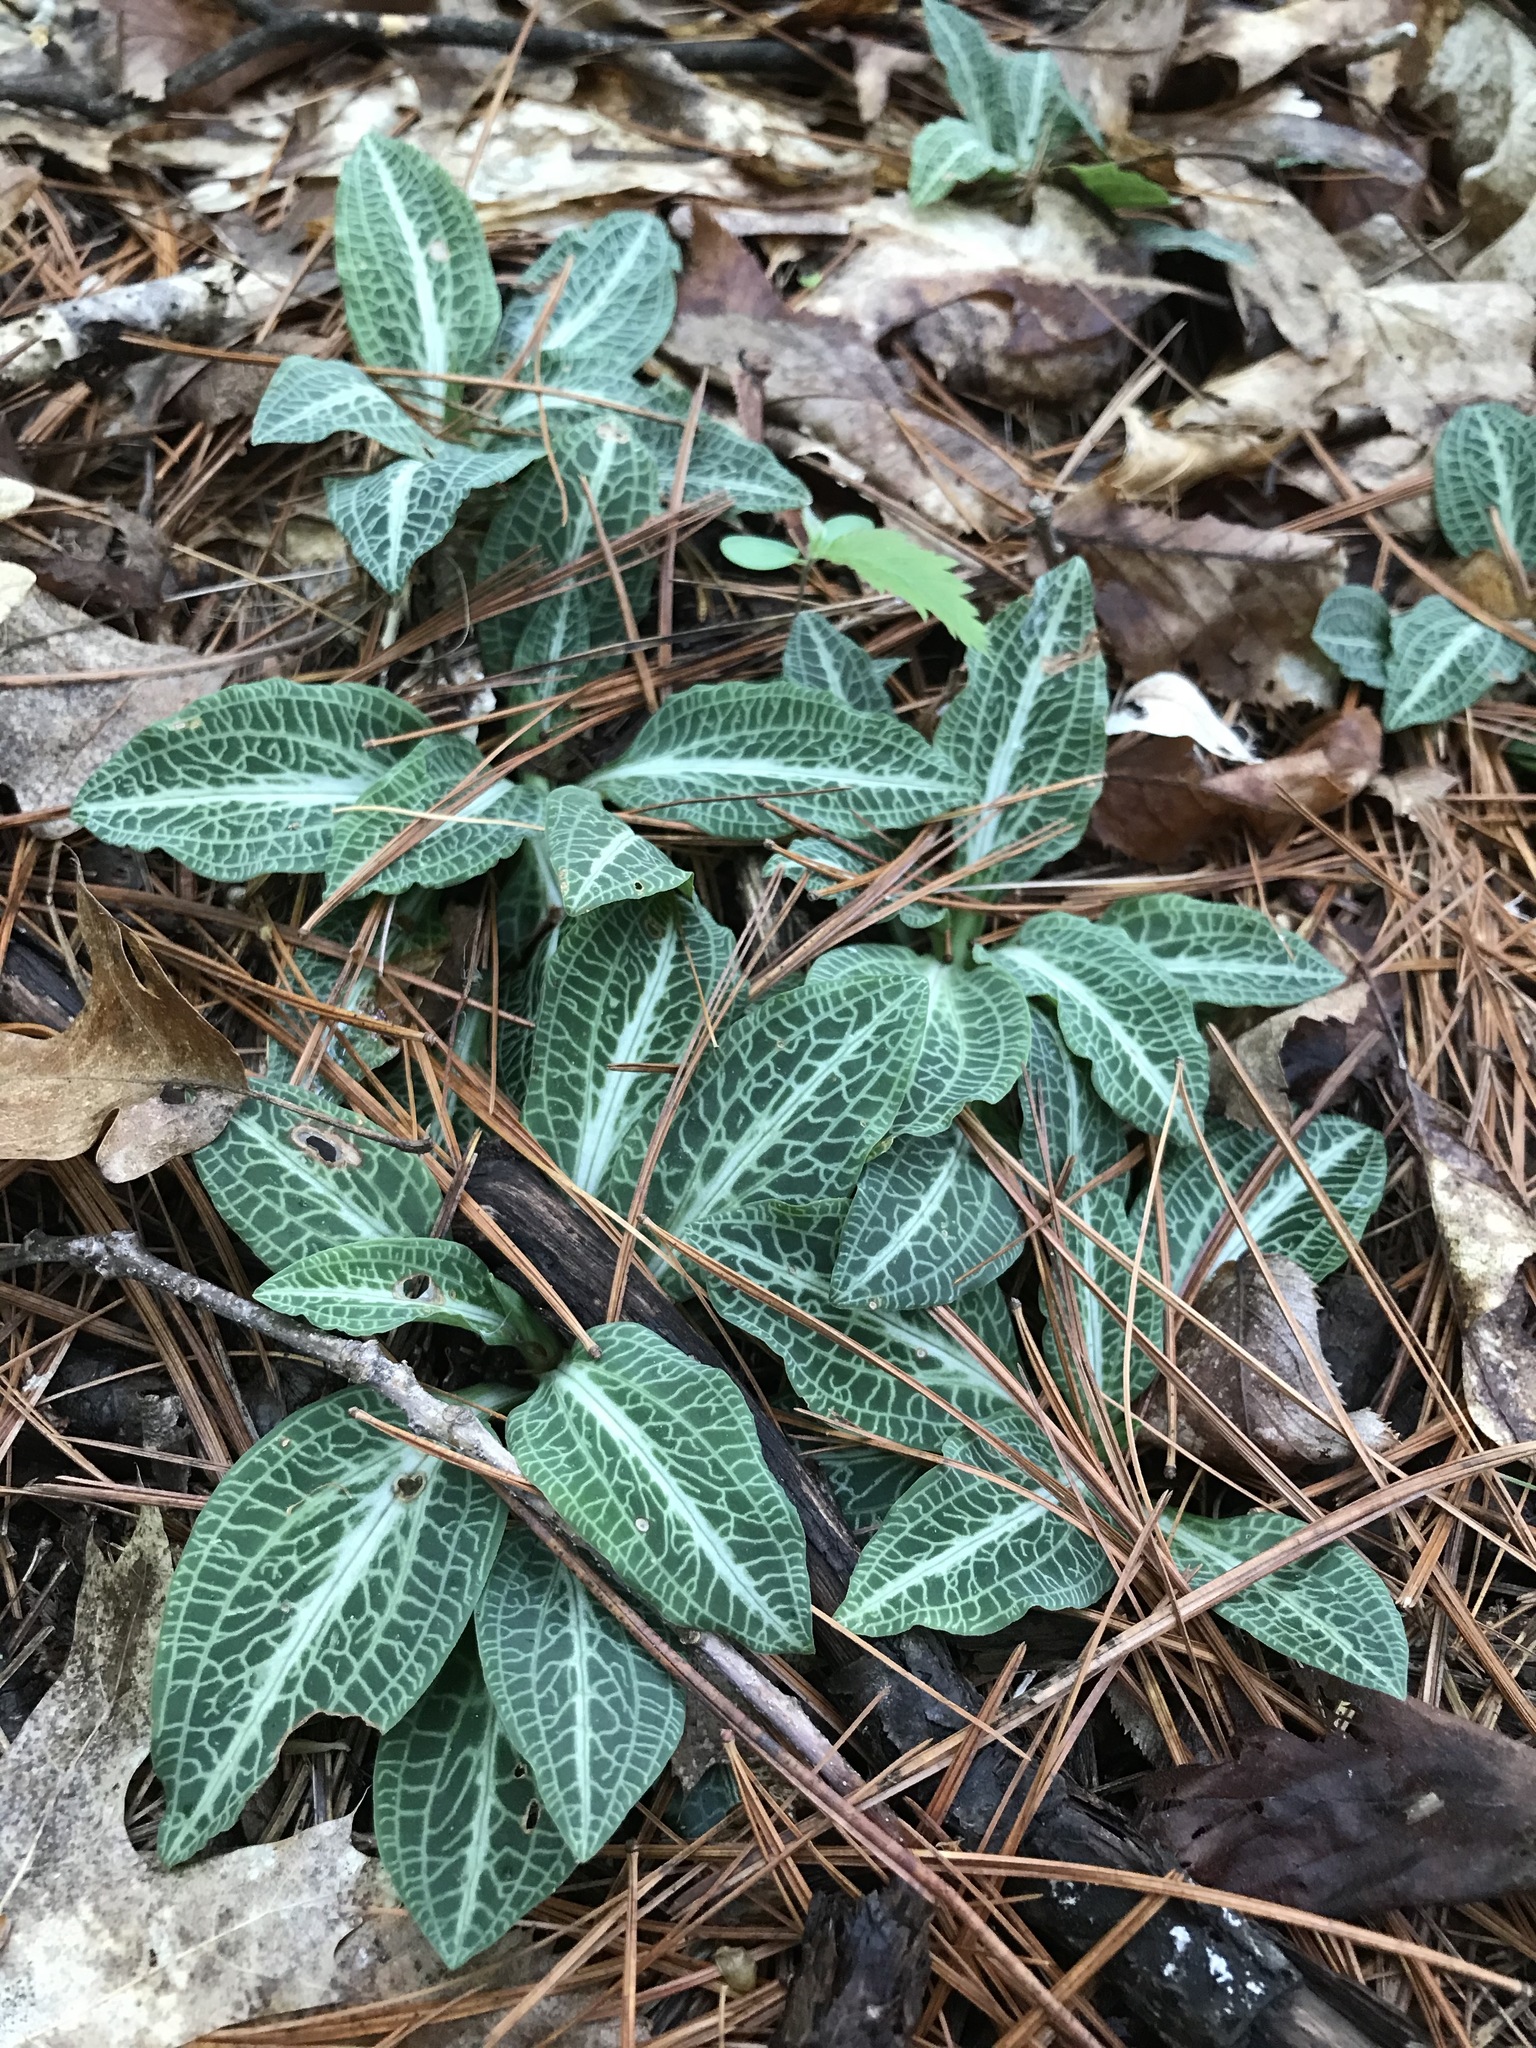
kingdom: Plantae
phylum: Tracheophyta
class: Liliopsida
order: Asparagales
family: Orchidaceae
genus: Goodyera
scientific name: Goodyera pubescens
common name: Downy rattlesnake-plantain
